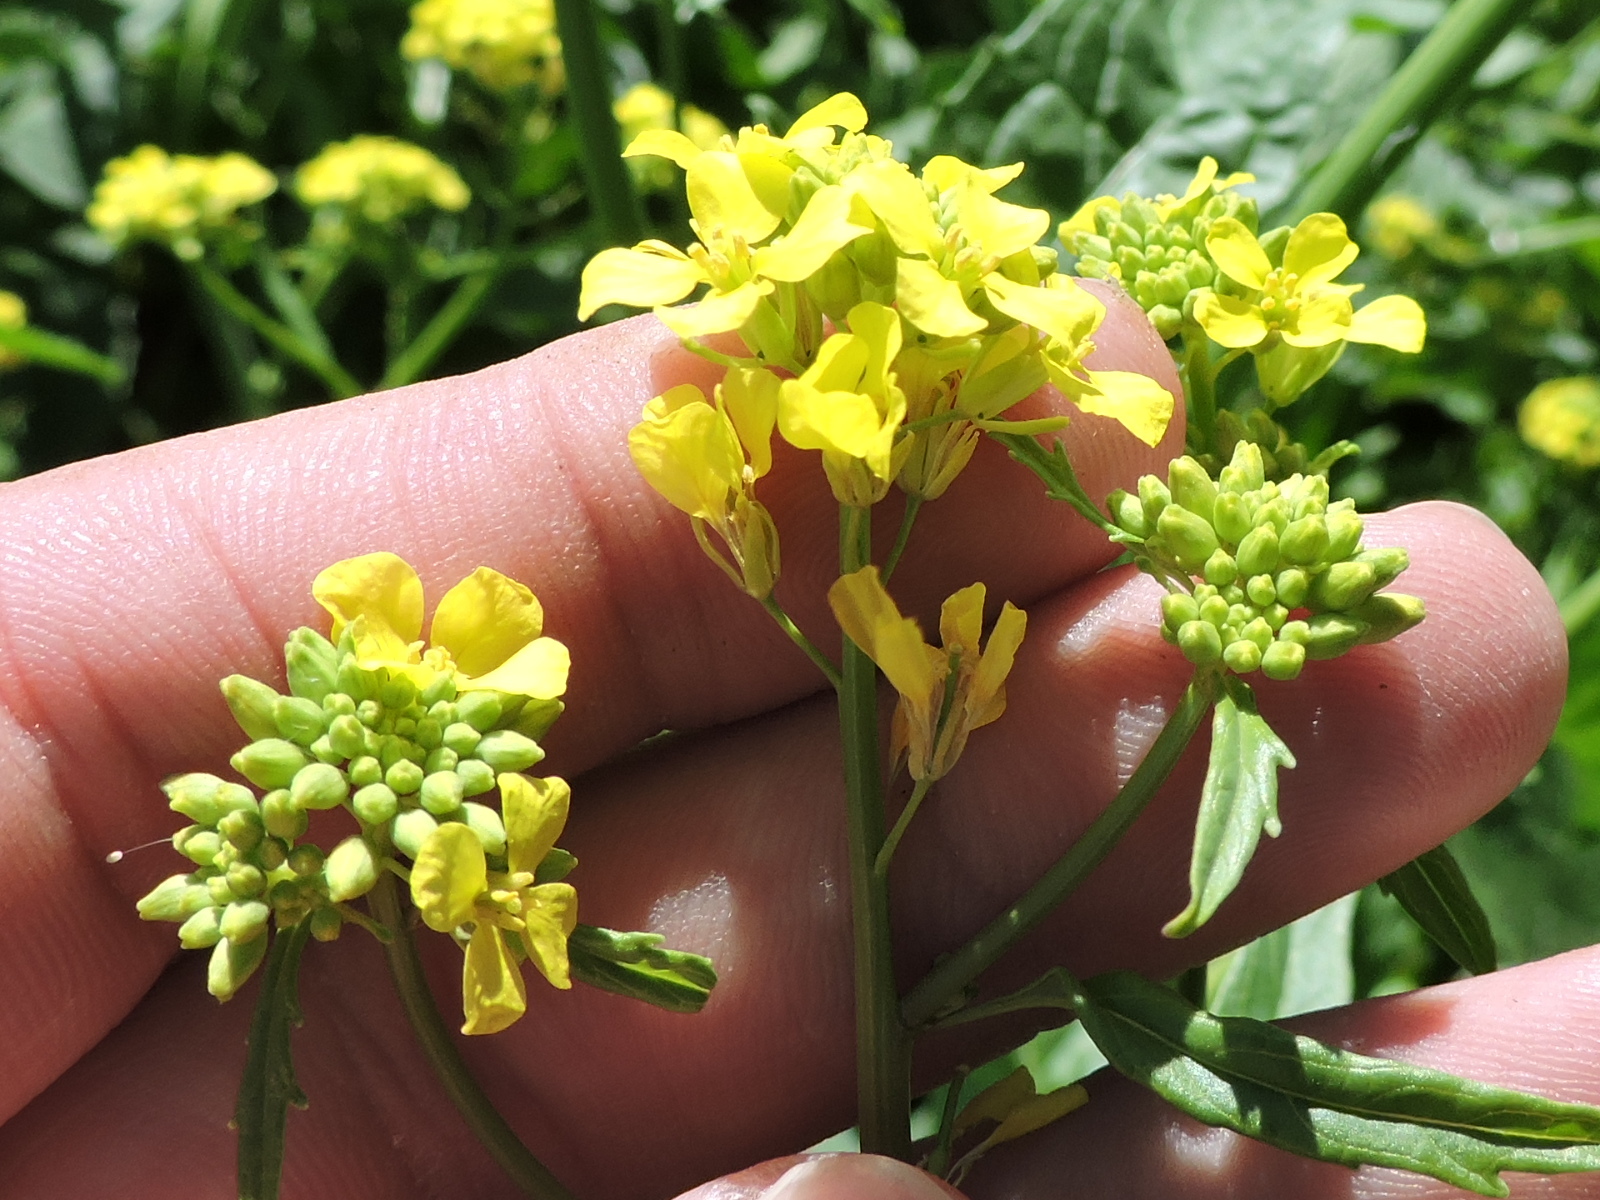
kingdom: Plantae
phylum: Tracheophyta
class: Magnoliopsida
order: Brassicales
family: Brassicaceae
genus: Rapistrum
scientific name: Rapistrum rugosum
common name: Annual bastardcabbage
